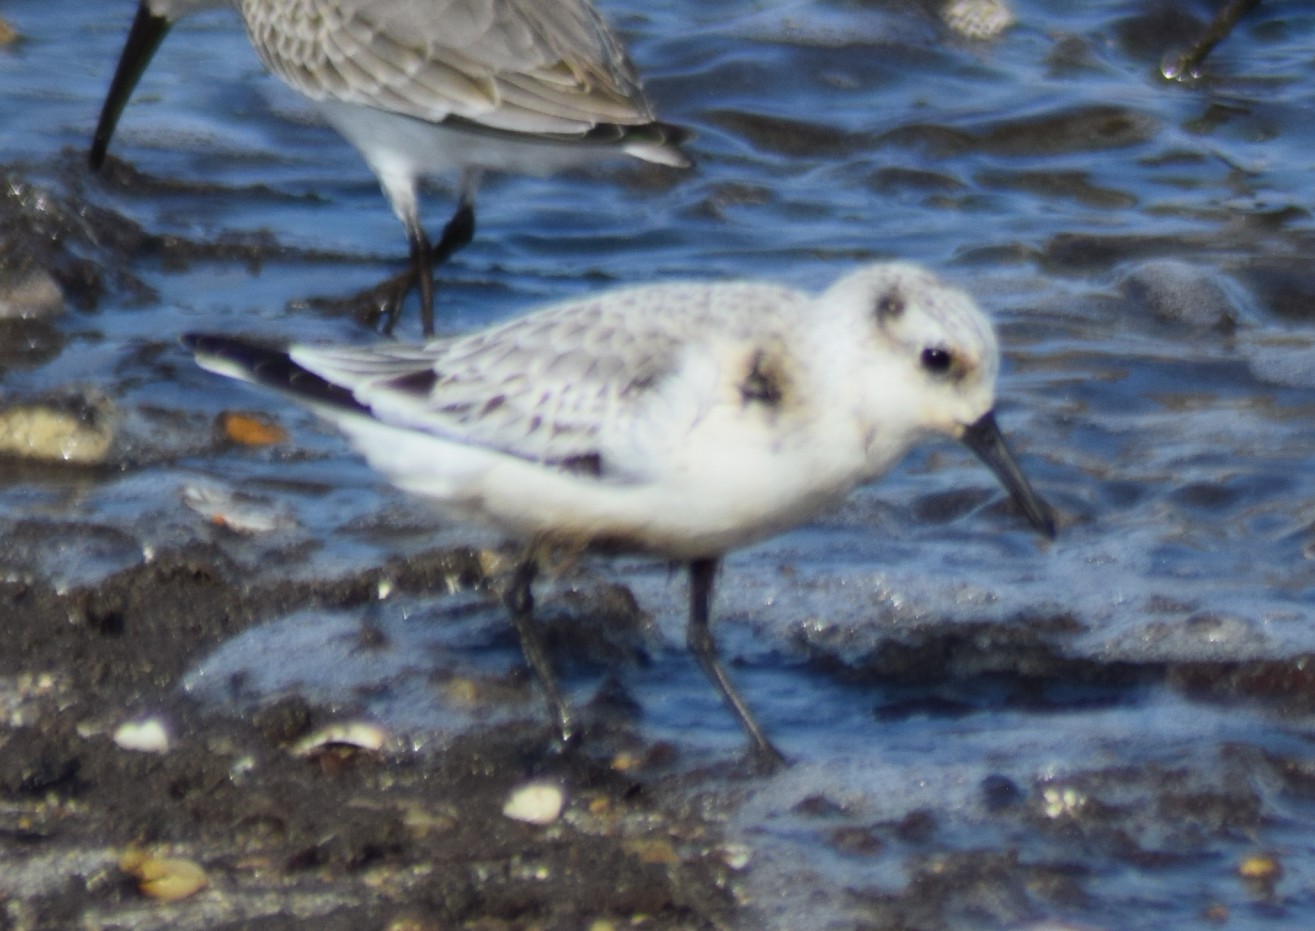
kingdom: Animalia
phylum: Chordata
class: Aves
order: Charadriiformes
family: Scolopacidae
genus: Calidris
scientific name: Calidris alba
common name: Sanderling
